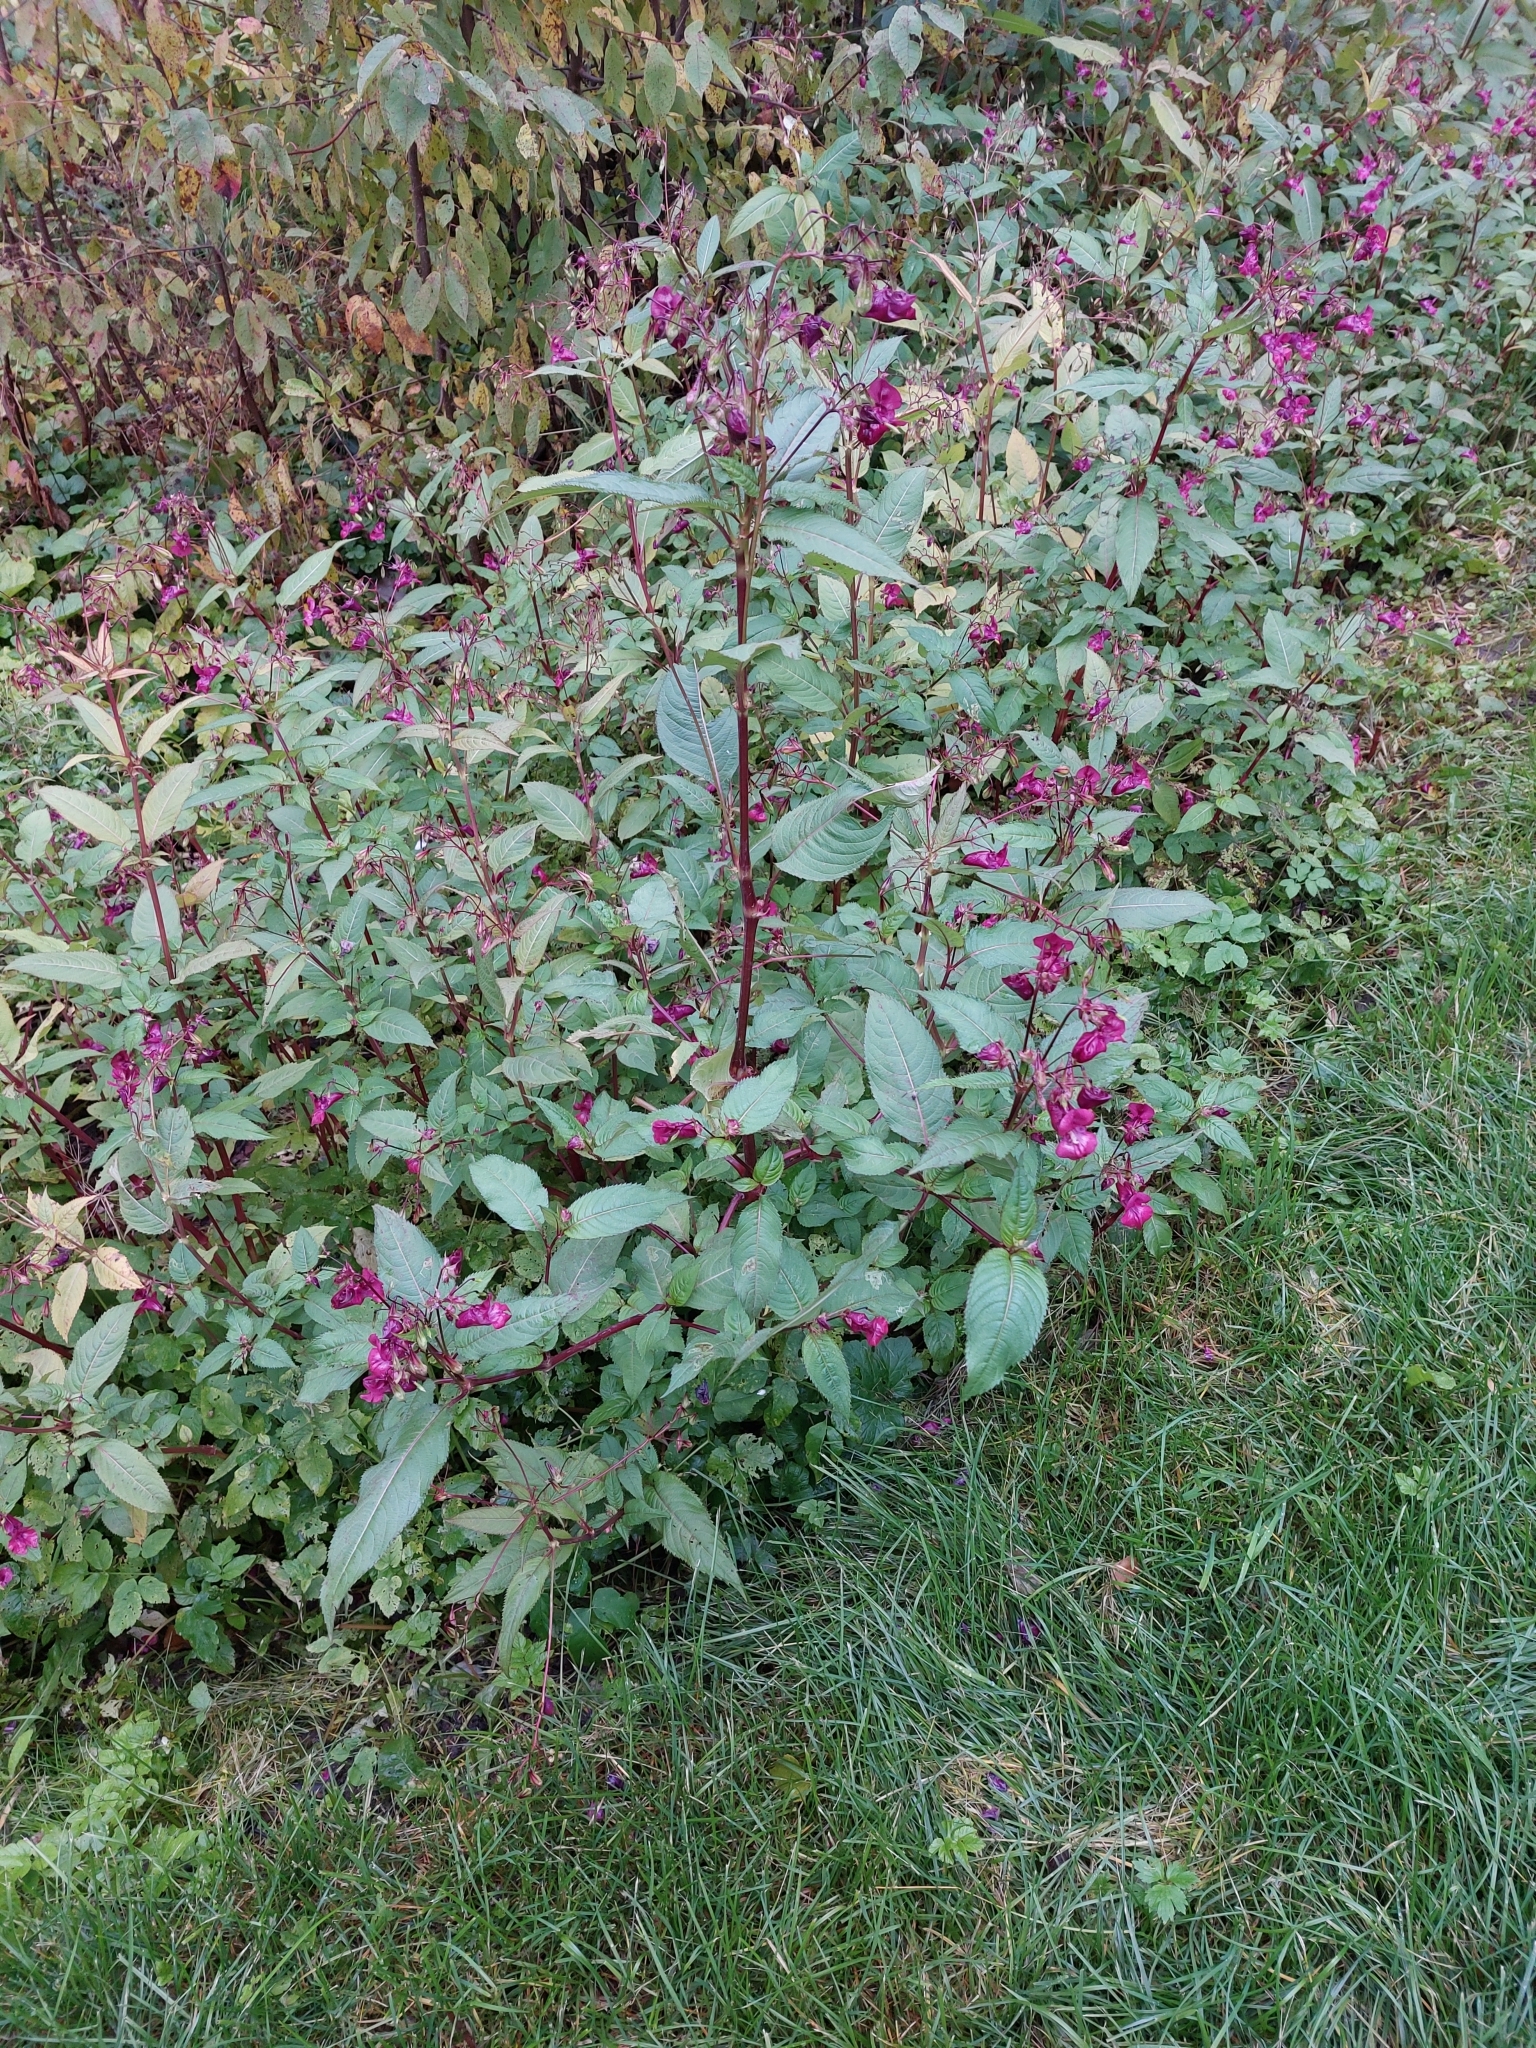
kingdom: Plantae
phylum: Tracheophyta
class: Magnoliopsida
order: Ericales
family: Balsaminaceae
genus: Impatiens
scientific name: Impatiens glandulifera
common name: Himalayan balsam
